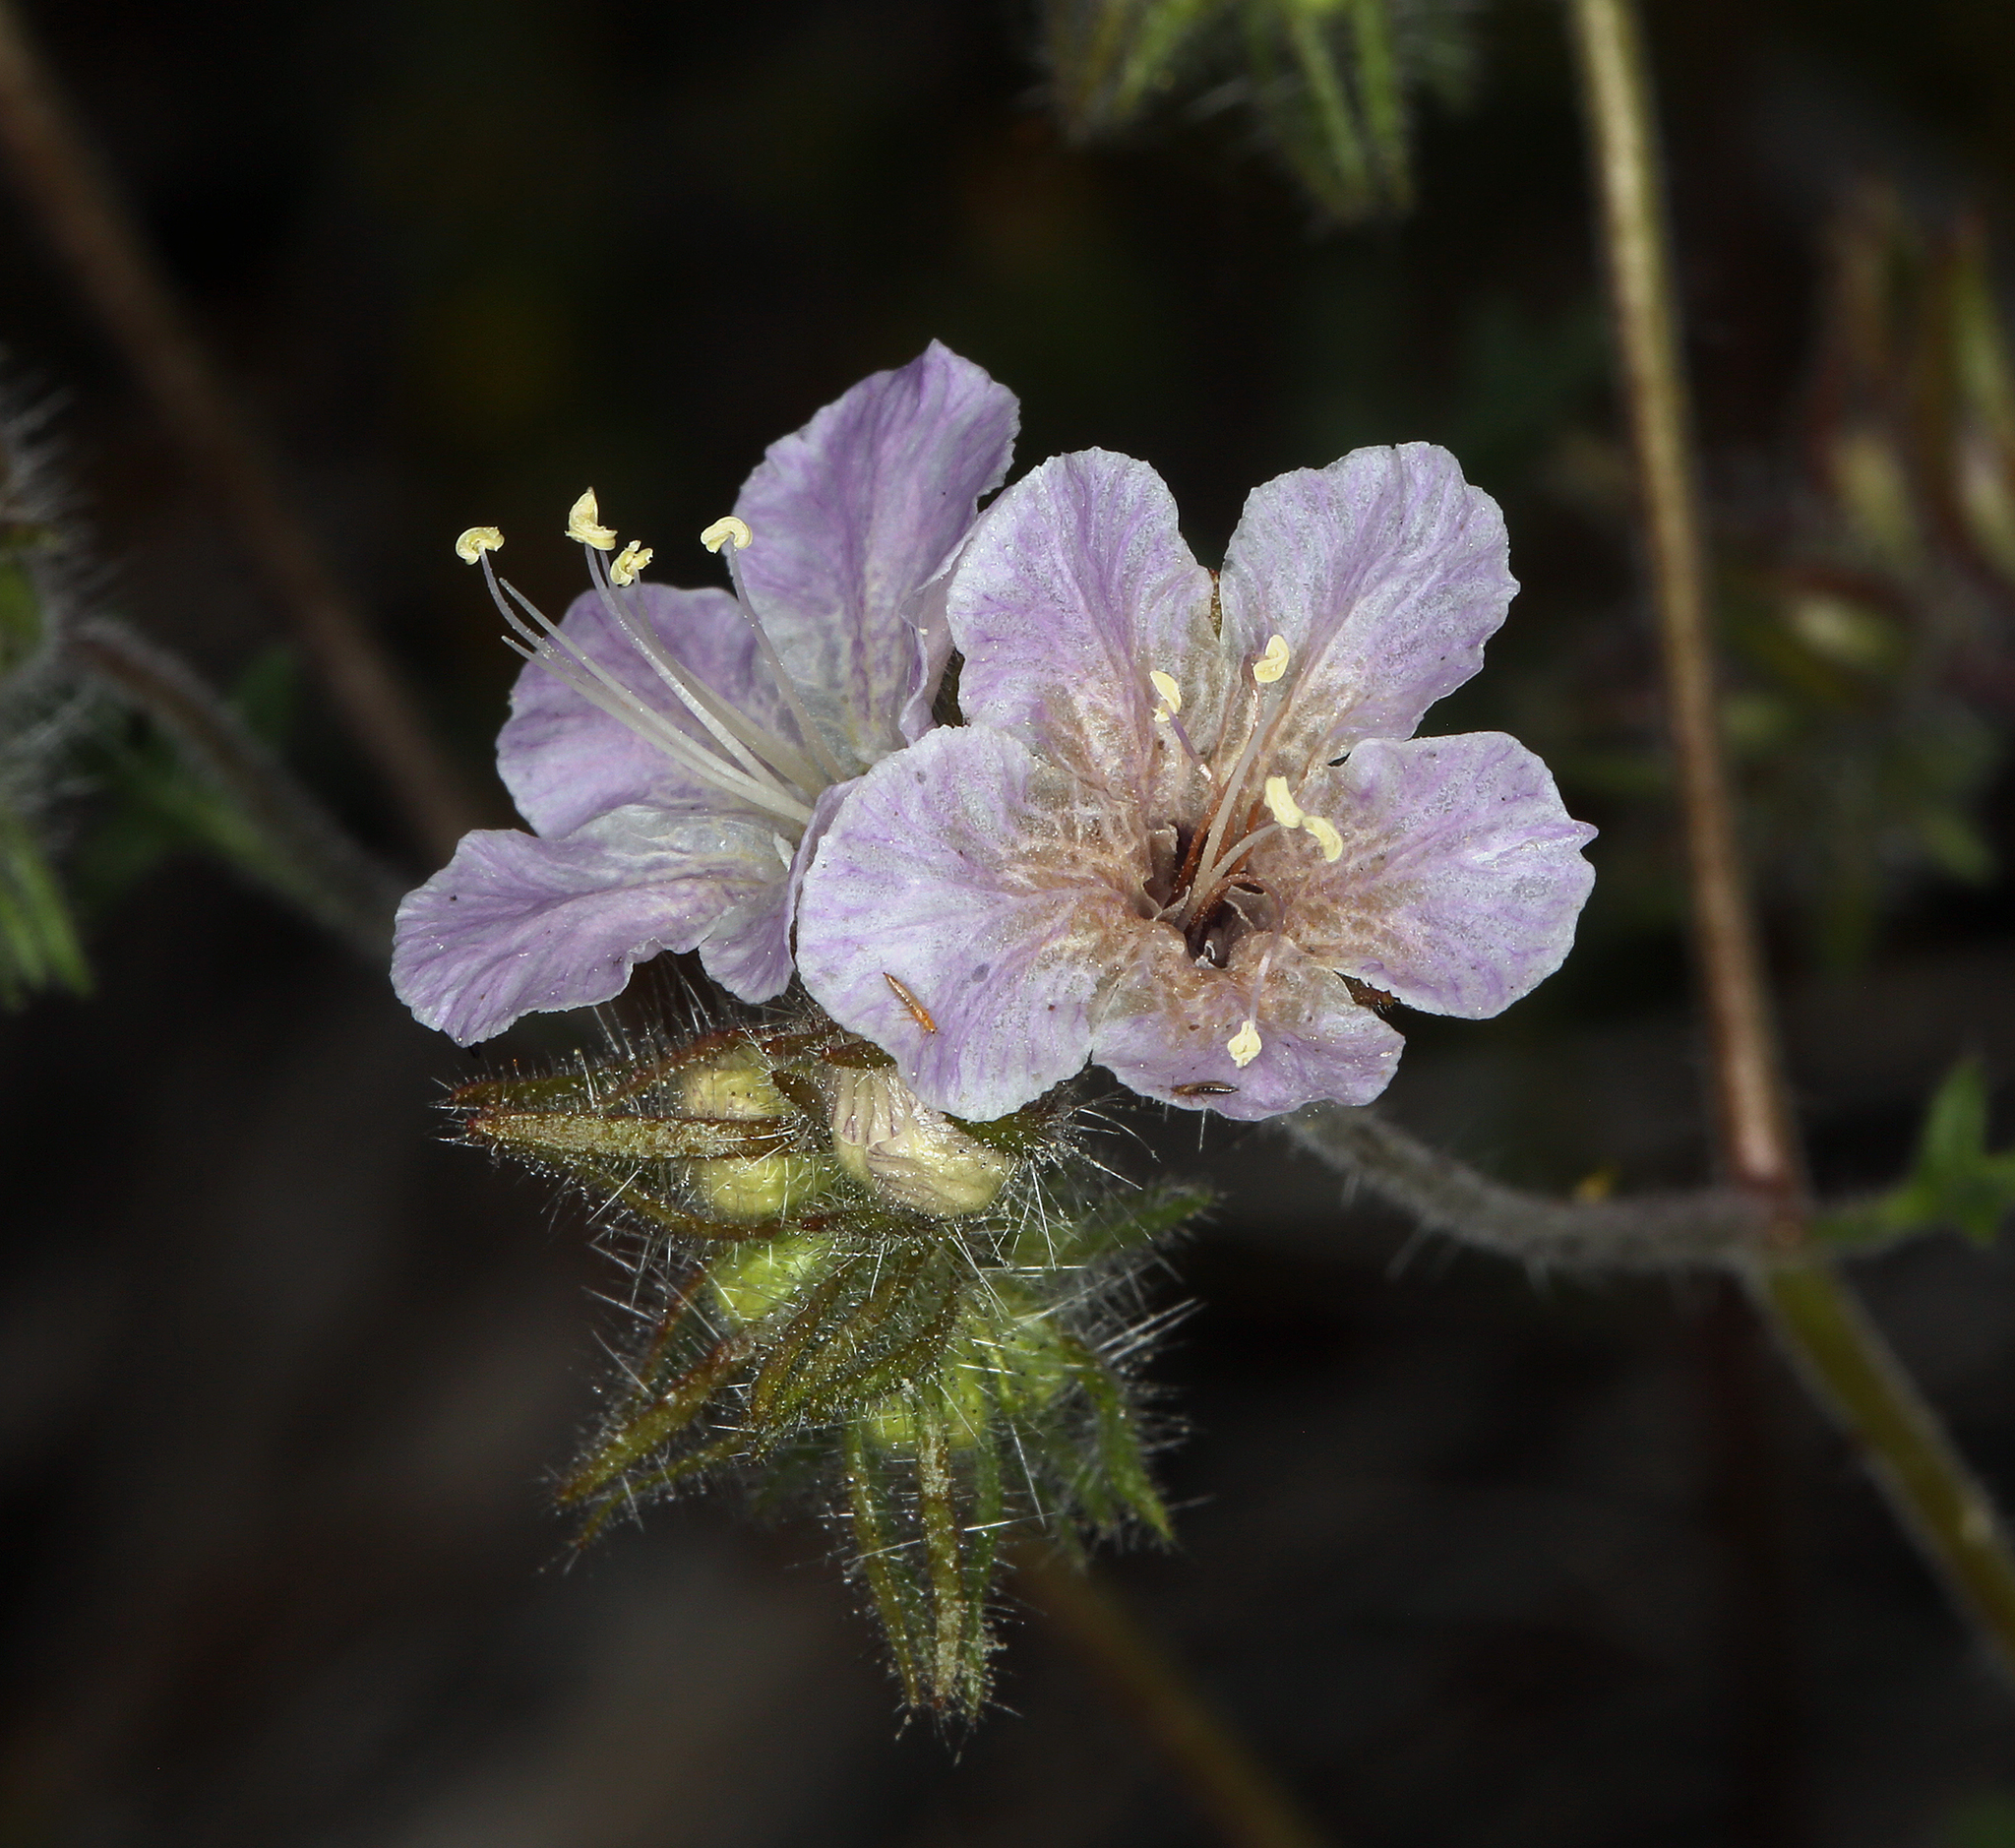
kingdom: Plantae
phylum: Tracheophyta
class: Magnoliopsida
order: Boraginales
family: Hydrophyllaceae
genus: Phacelia
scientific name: Phacelia vallis-mortae
